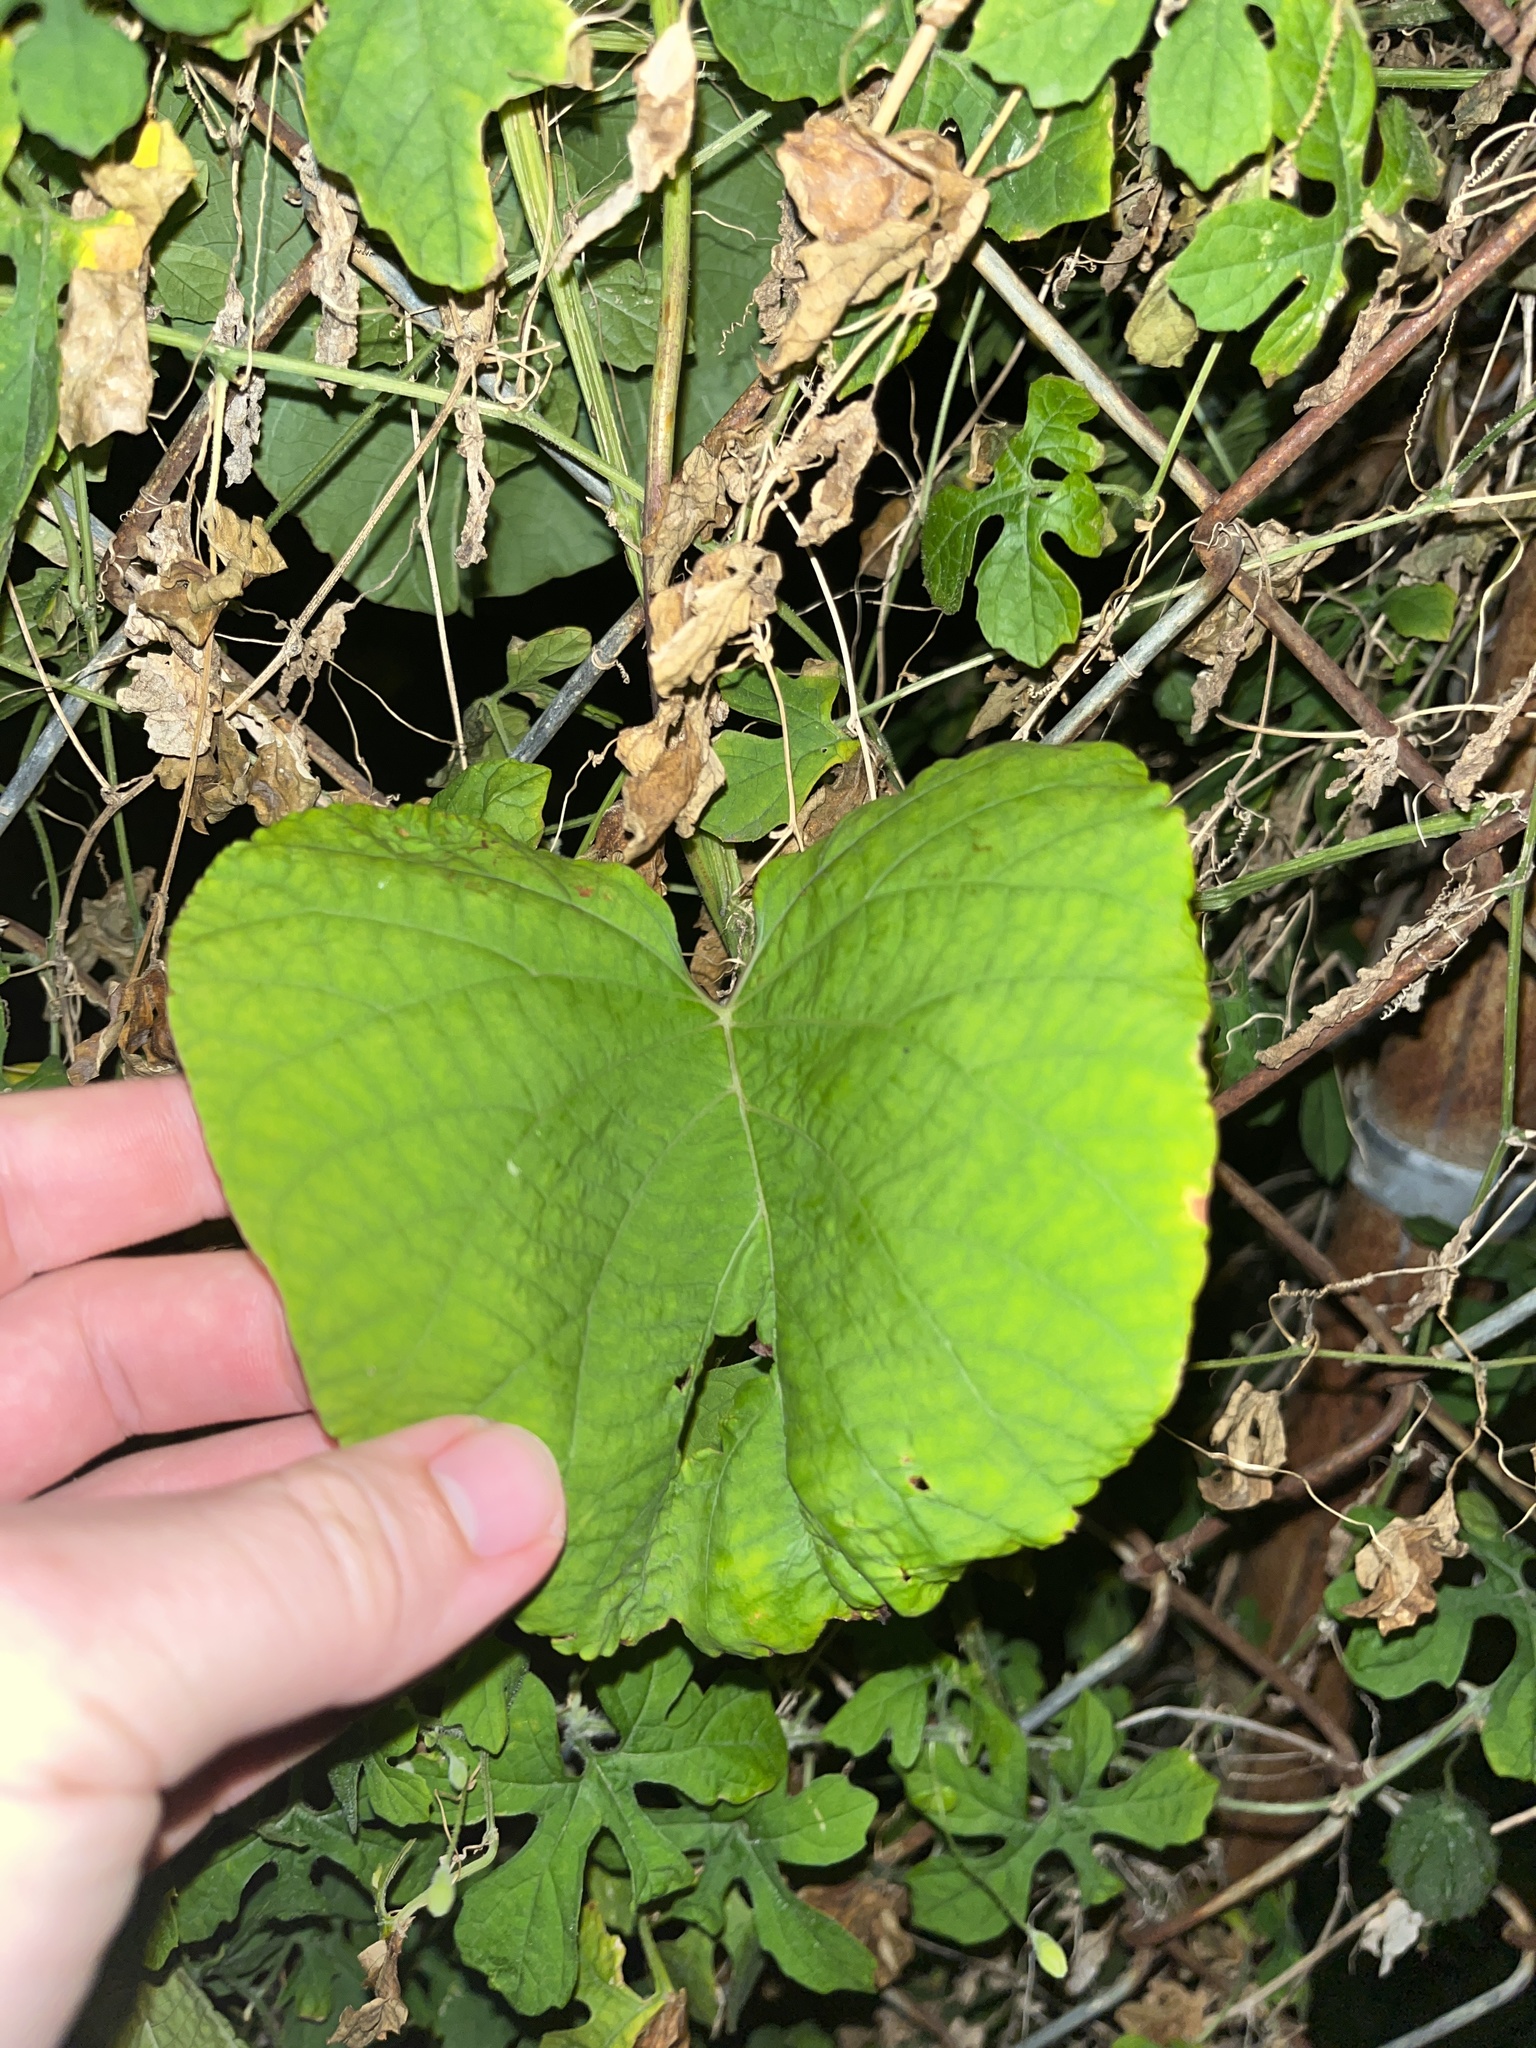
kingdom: Plantae
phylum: Tracheophyta
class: Magnoliopsida
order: Solanales
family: Convolvulaceae
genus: Camonea
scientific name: Camonea umbellata
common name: Hogvine
